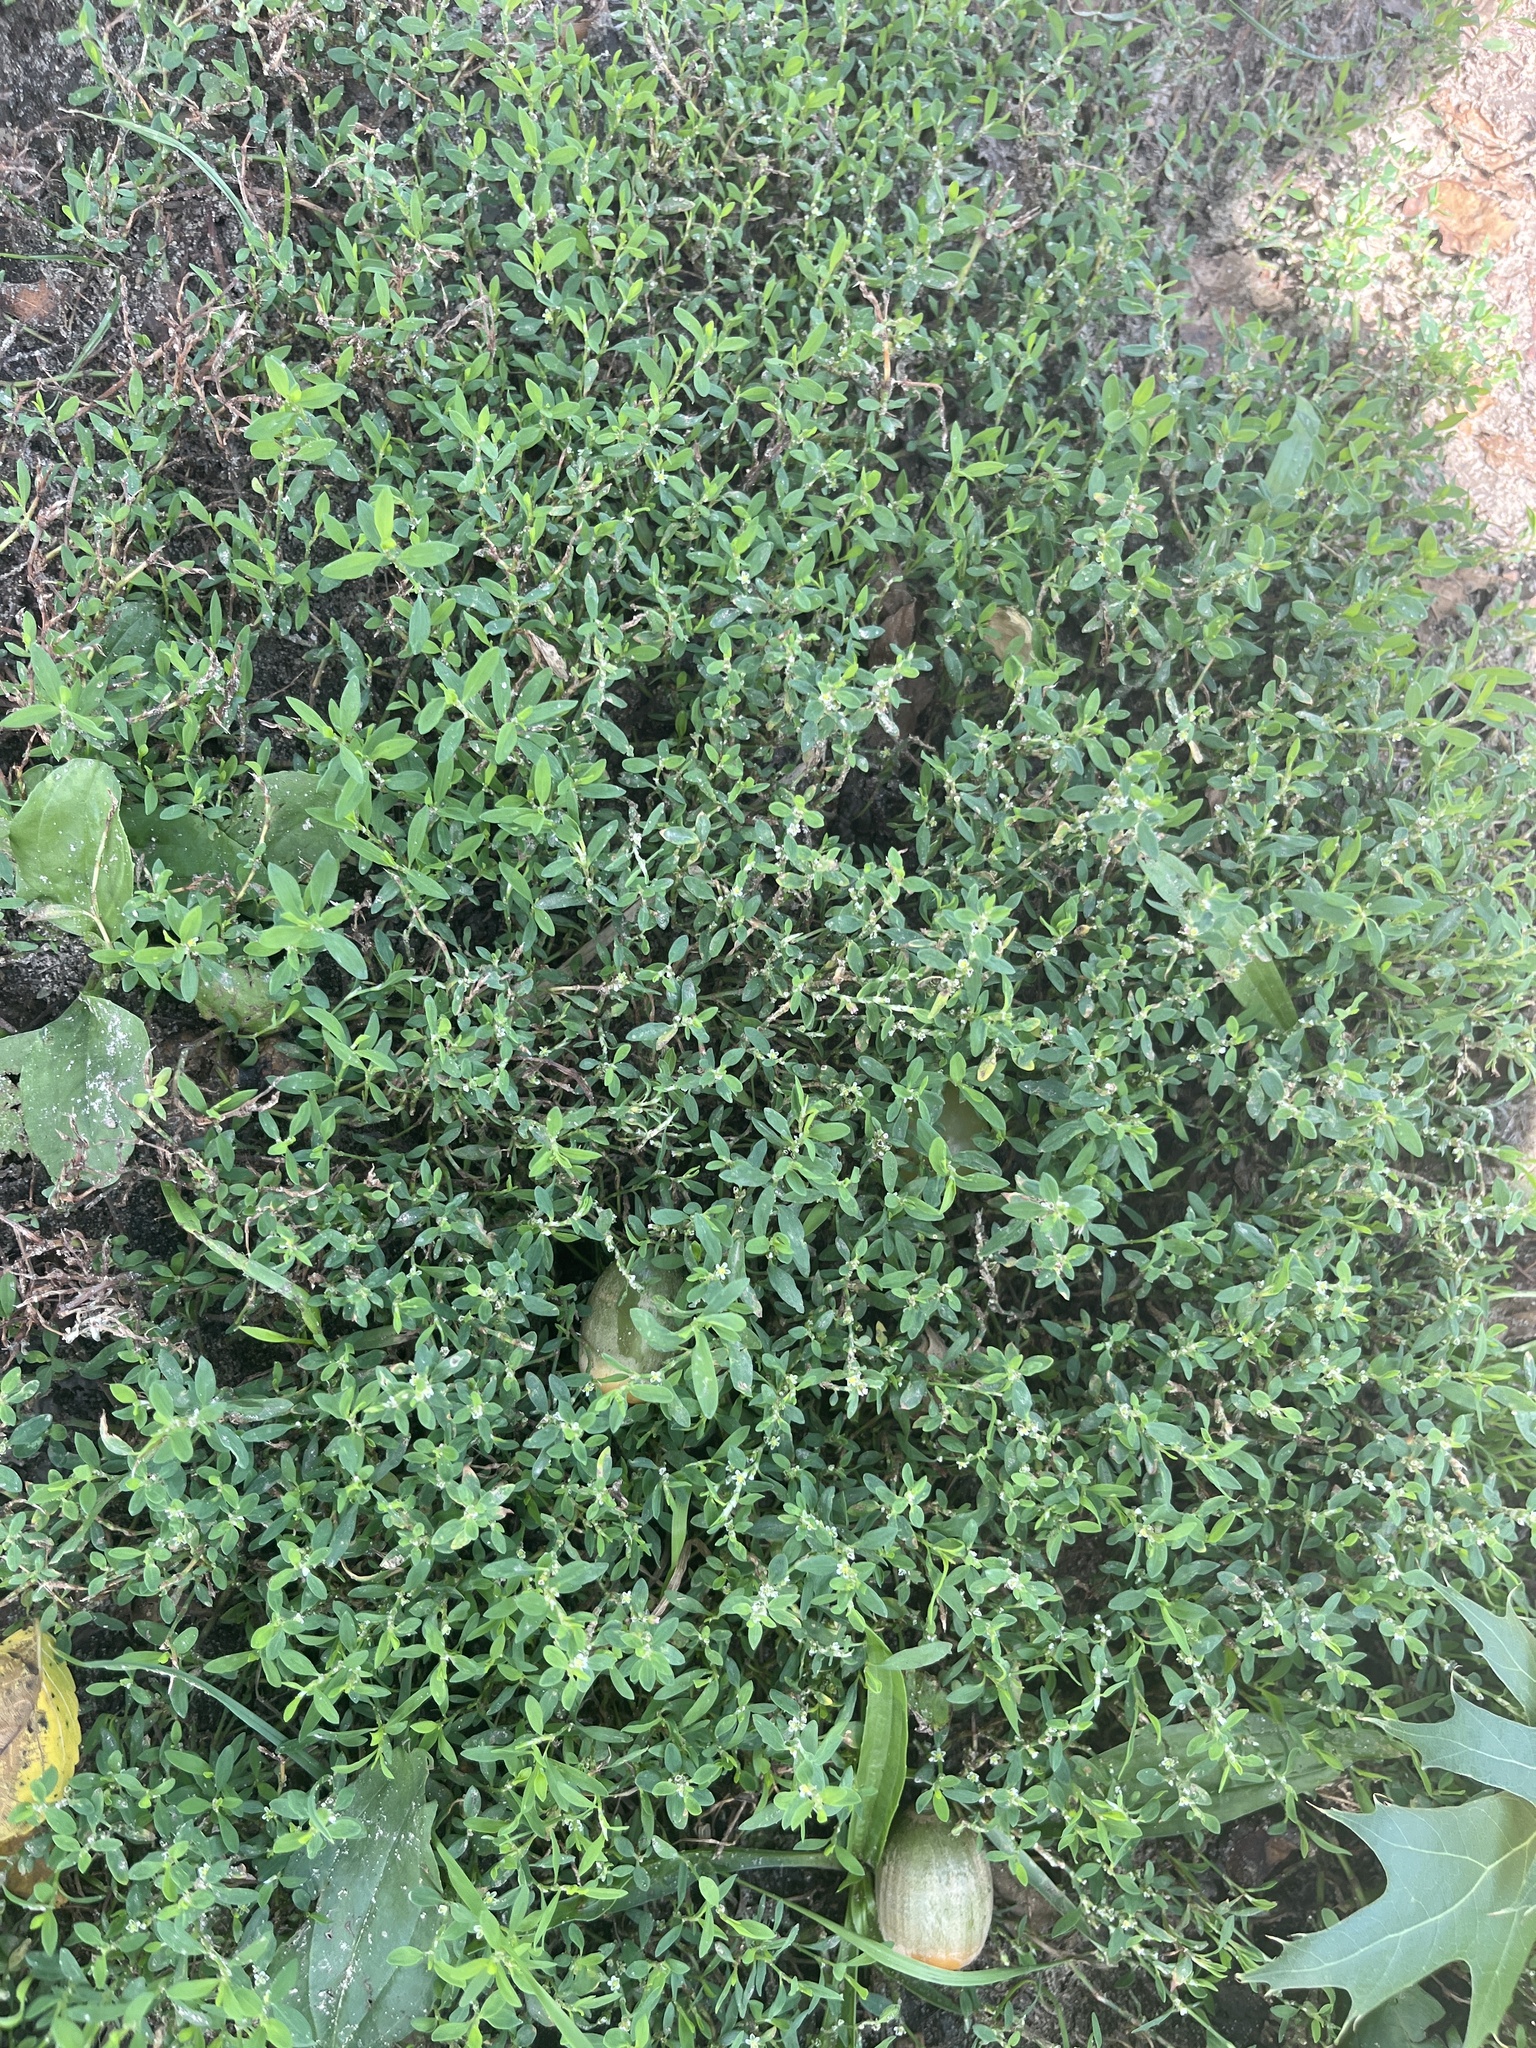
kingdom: Plantae
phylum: Tracheophyta
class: Magnoliopsida
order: Caryophyllales
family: Polygonaceae
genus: Polygonum
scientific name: Polygonum aviculare
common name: Prostrate knotweed
